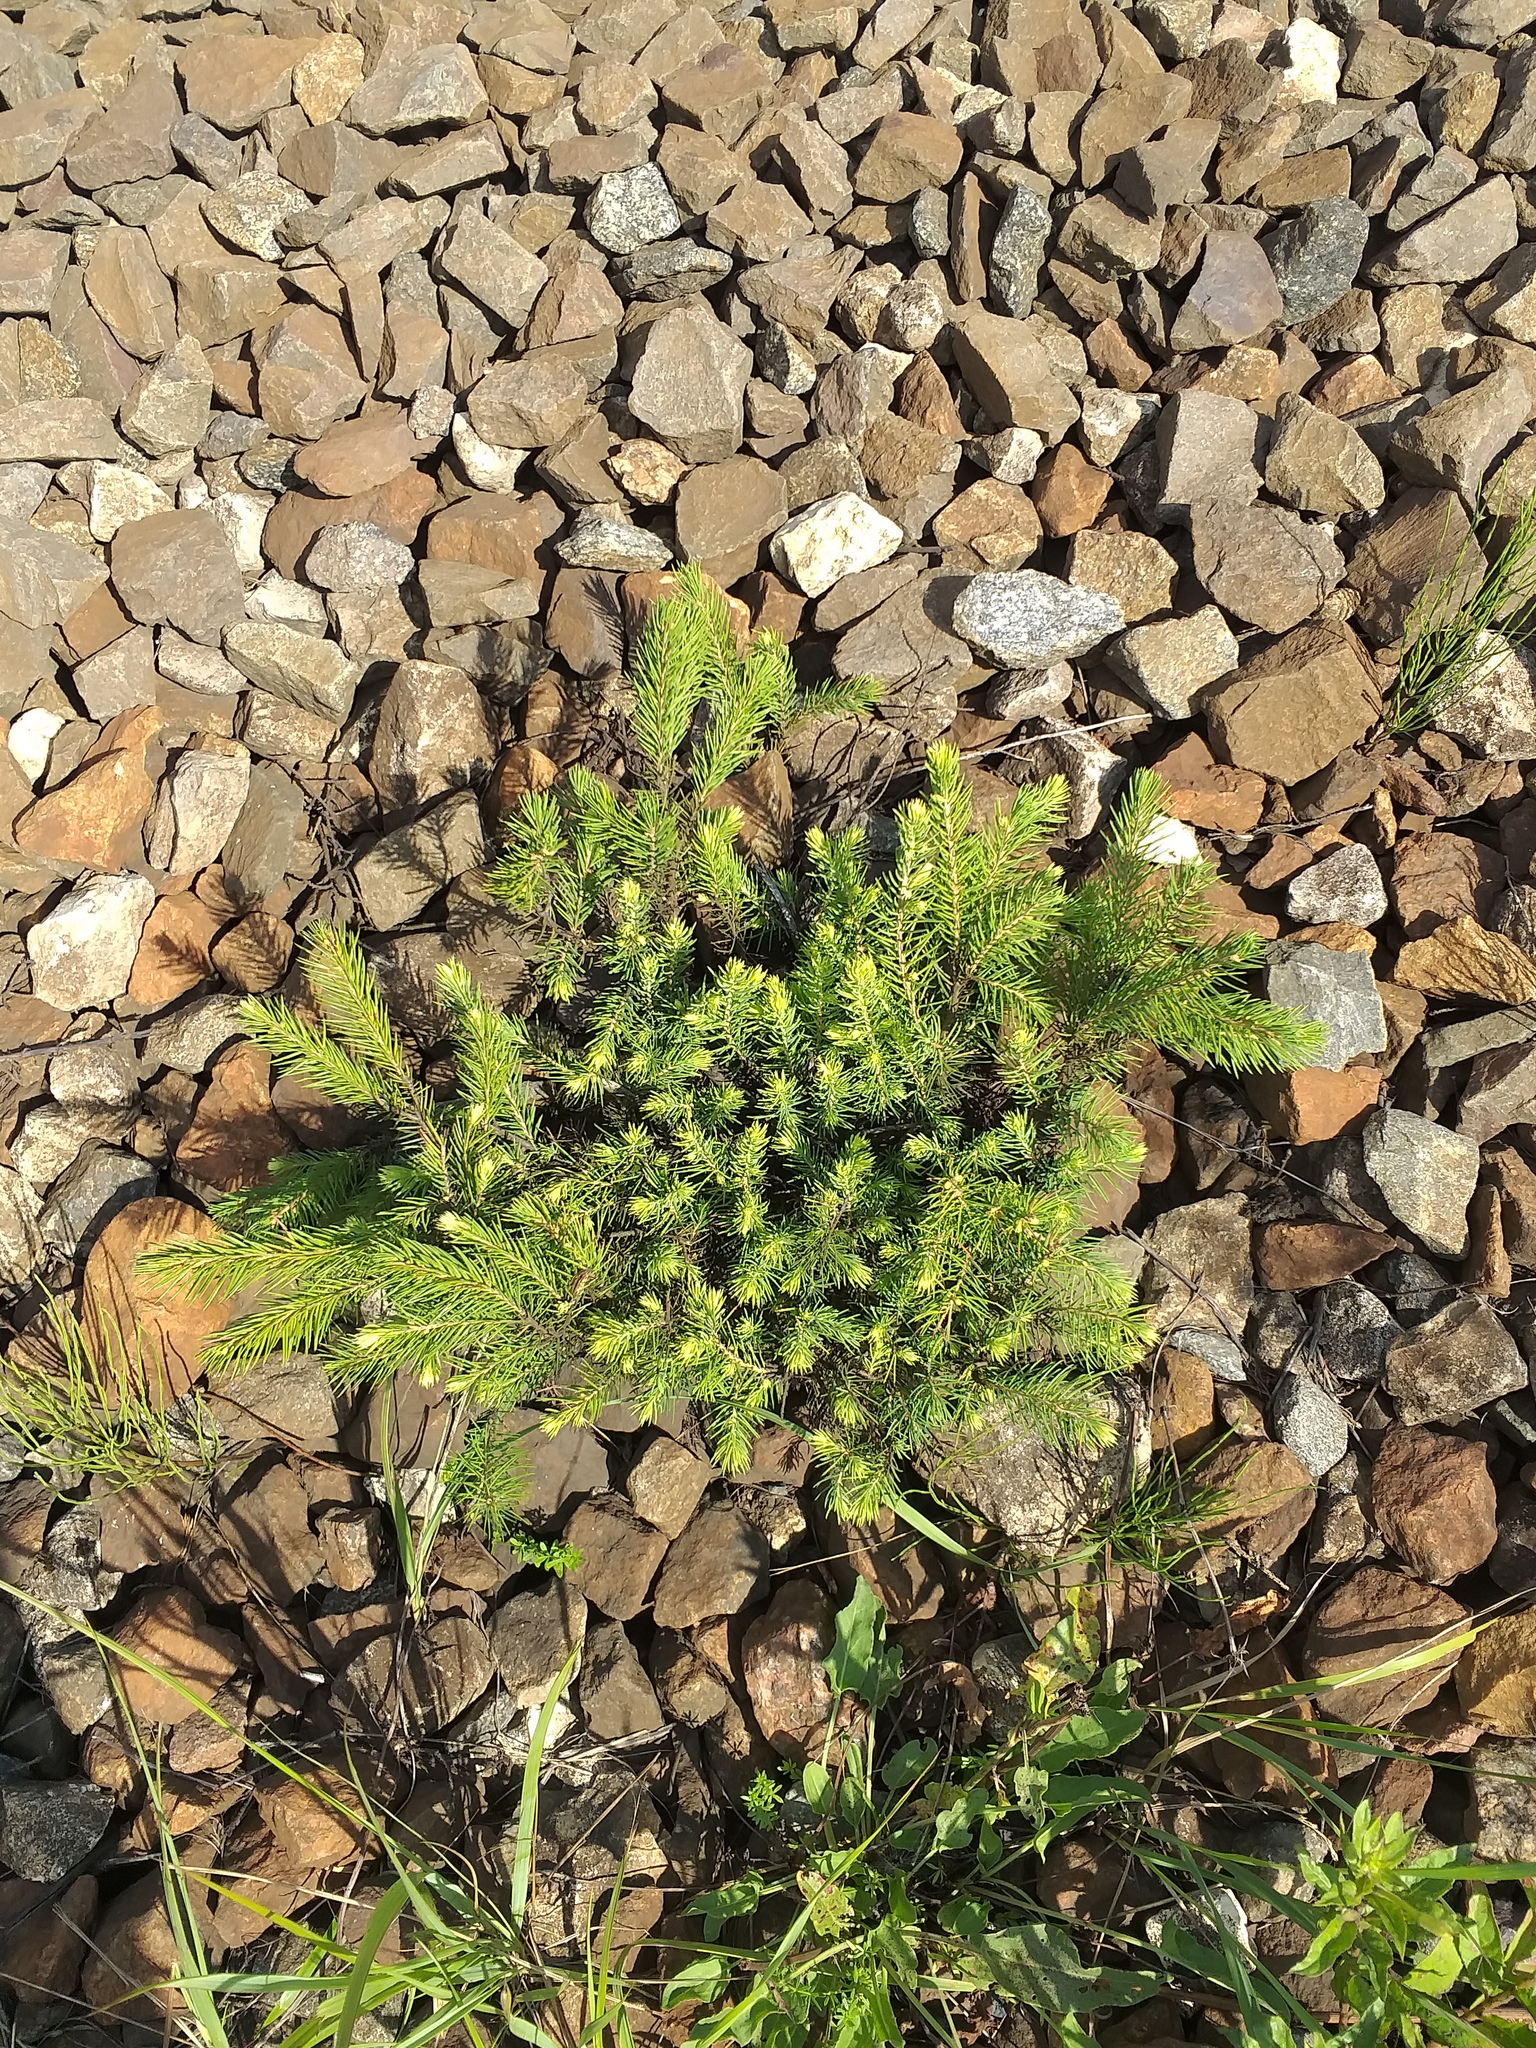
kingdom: Plantae
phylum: Tracheophyta
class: Pinopsida
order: Pinales
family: Pinaceae
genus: Picea
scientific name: Picea abies
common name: Norway spruce
